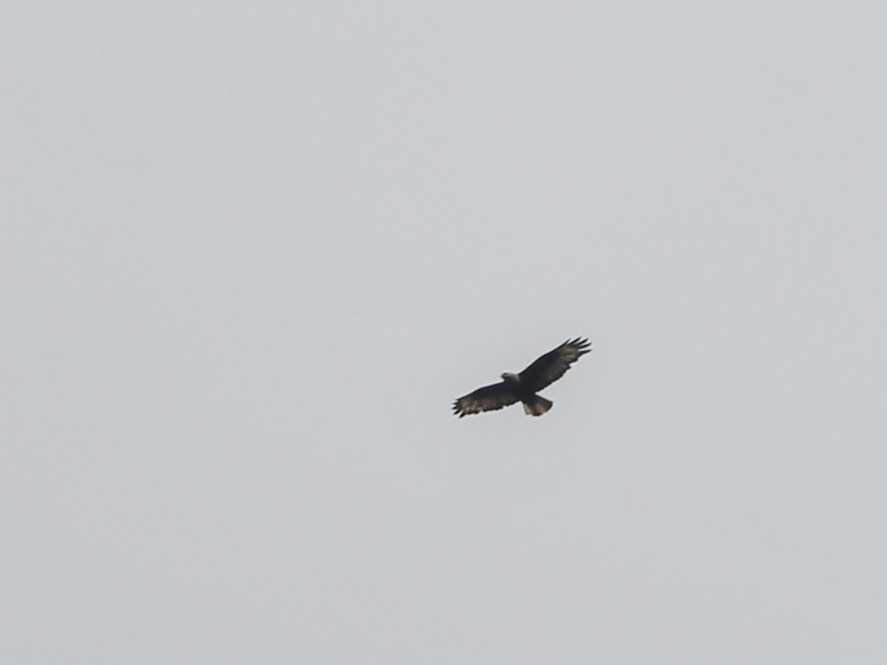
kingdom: Animalia
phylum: Chordata
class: Aves
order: Accipitriformes
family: Accipitridae
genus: Buteo
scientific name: Buteo rufinus
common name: Long-legged buzzard
